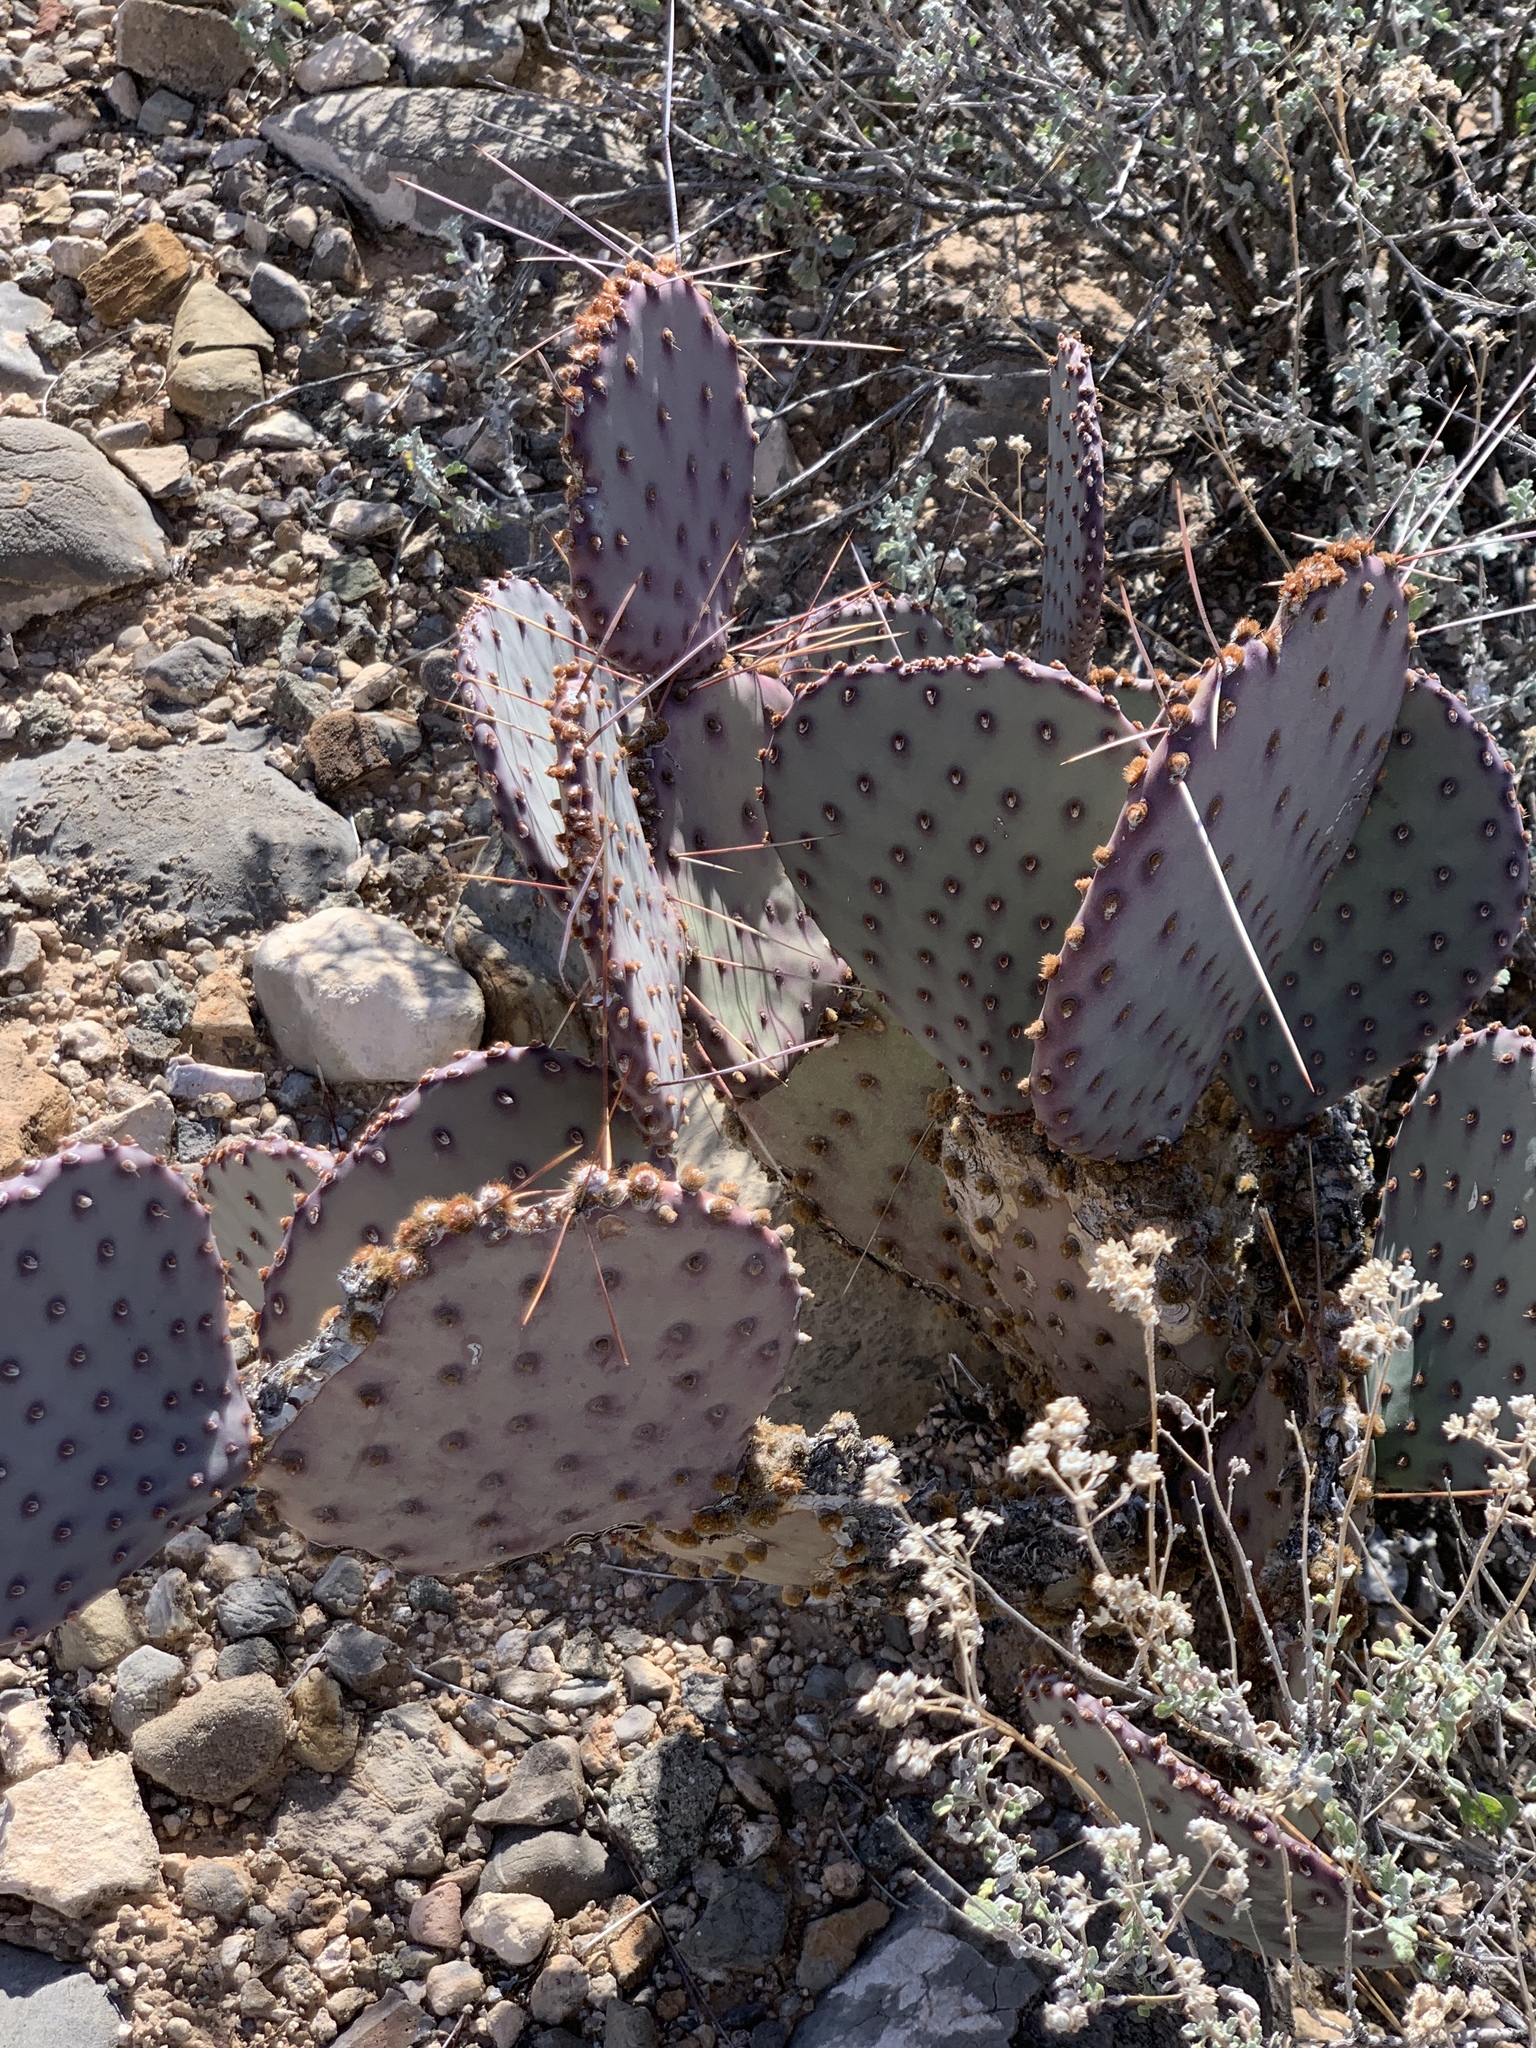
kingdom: Plantae
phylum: Tracheophyta
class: Magnoliopsida
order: Caryophyllales
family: Cactaceae
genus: Opuntia
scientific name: Opuntia macrocentra
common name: Purple prickly-pear
